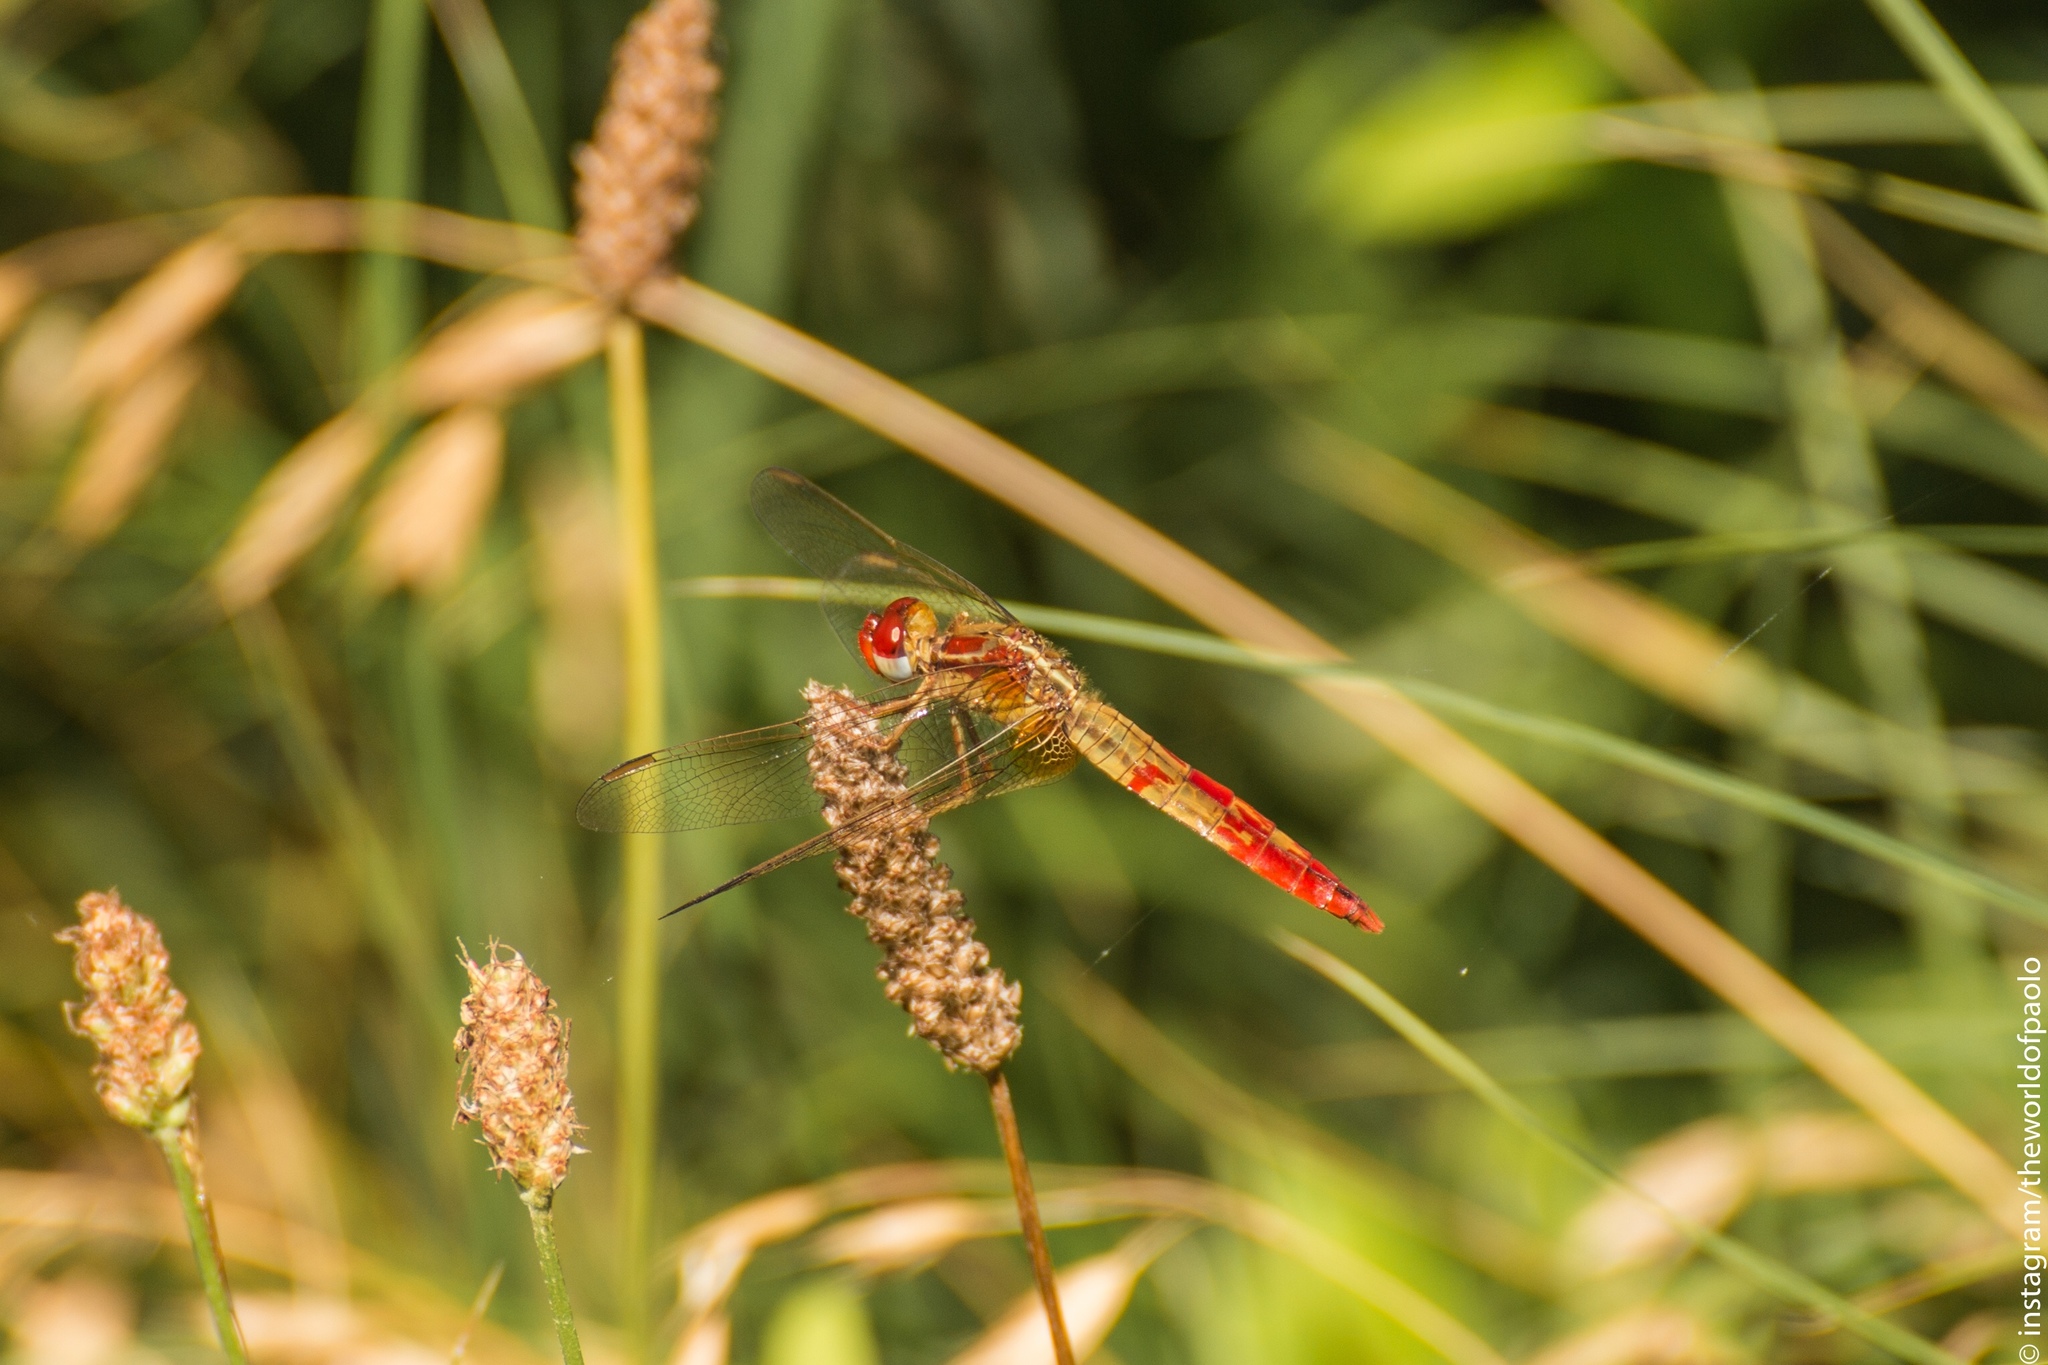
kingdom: Animalia
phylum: Arthropoda
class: Insecta
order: Odonata
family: Libellulidae
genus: Crocothemis
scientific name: Crocothemis erythraea
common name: Scarlet dragonfly
